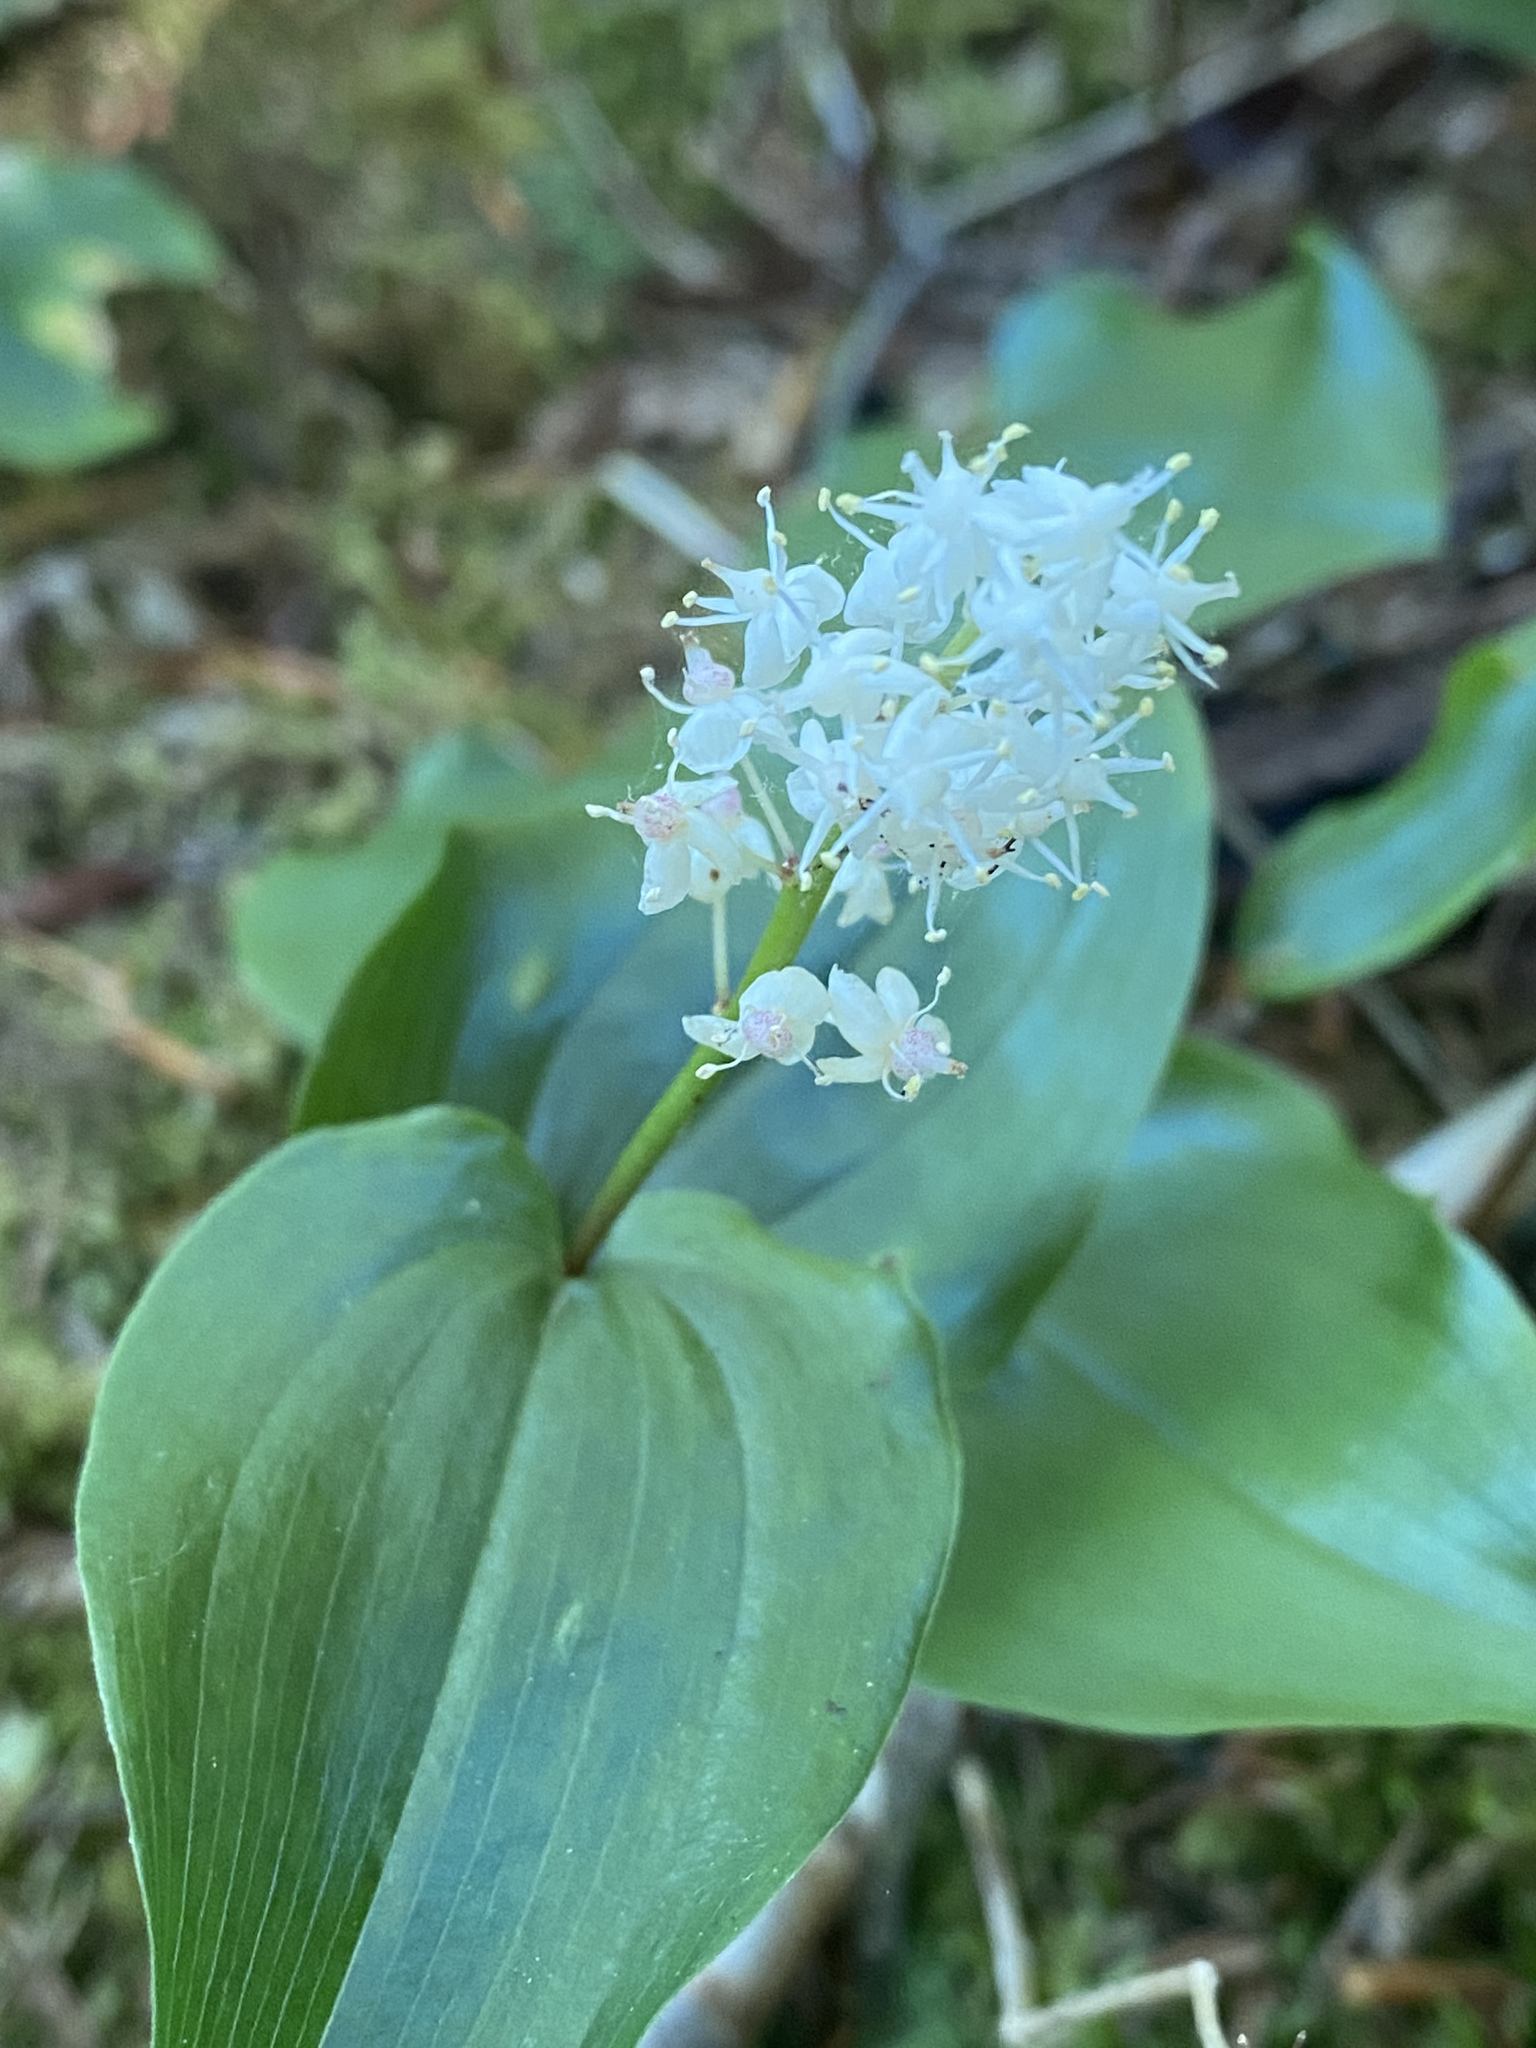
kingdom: Plantae
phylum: Tracheophyta
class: Liliopsida
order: Asparagales
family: Asparagaceae
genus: Maianthemum
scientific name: Maianthemum canadense
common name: False lily-of-the-valley
